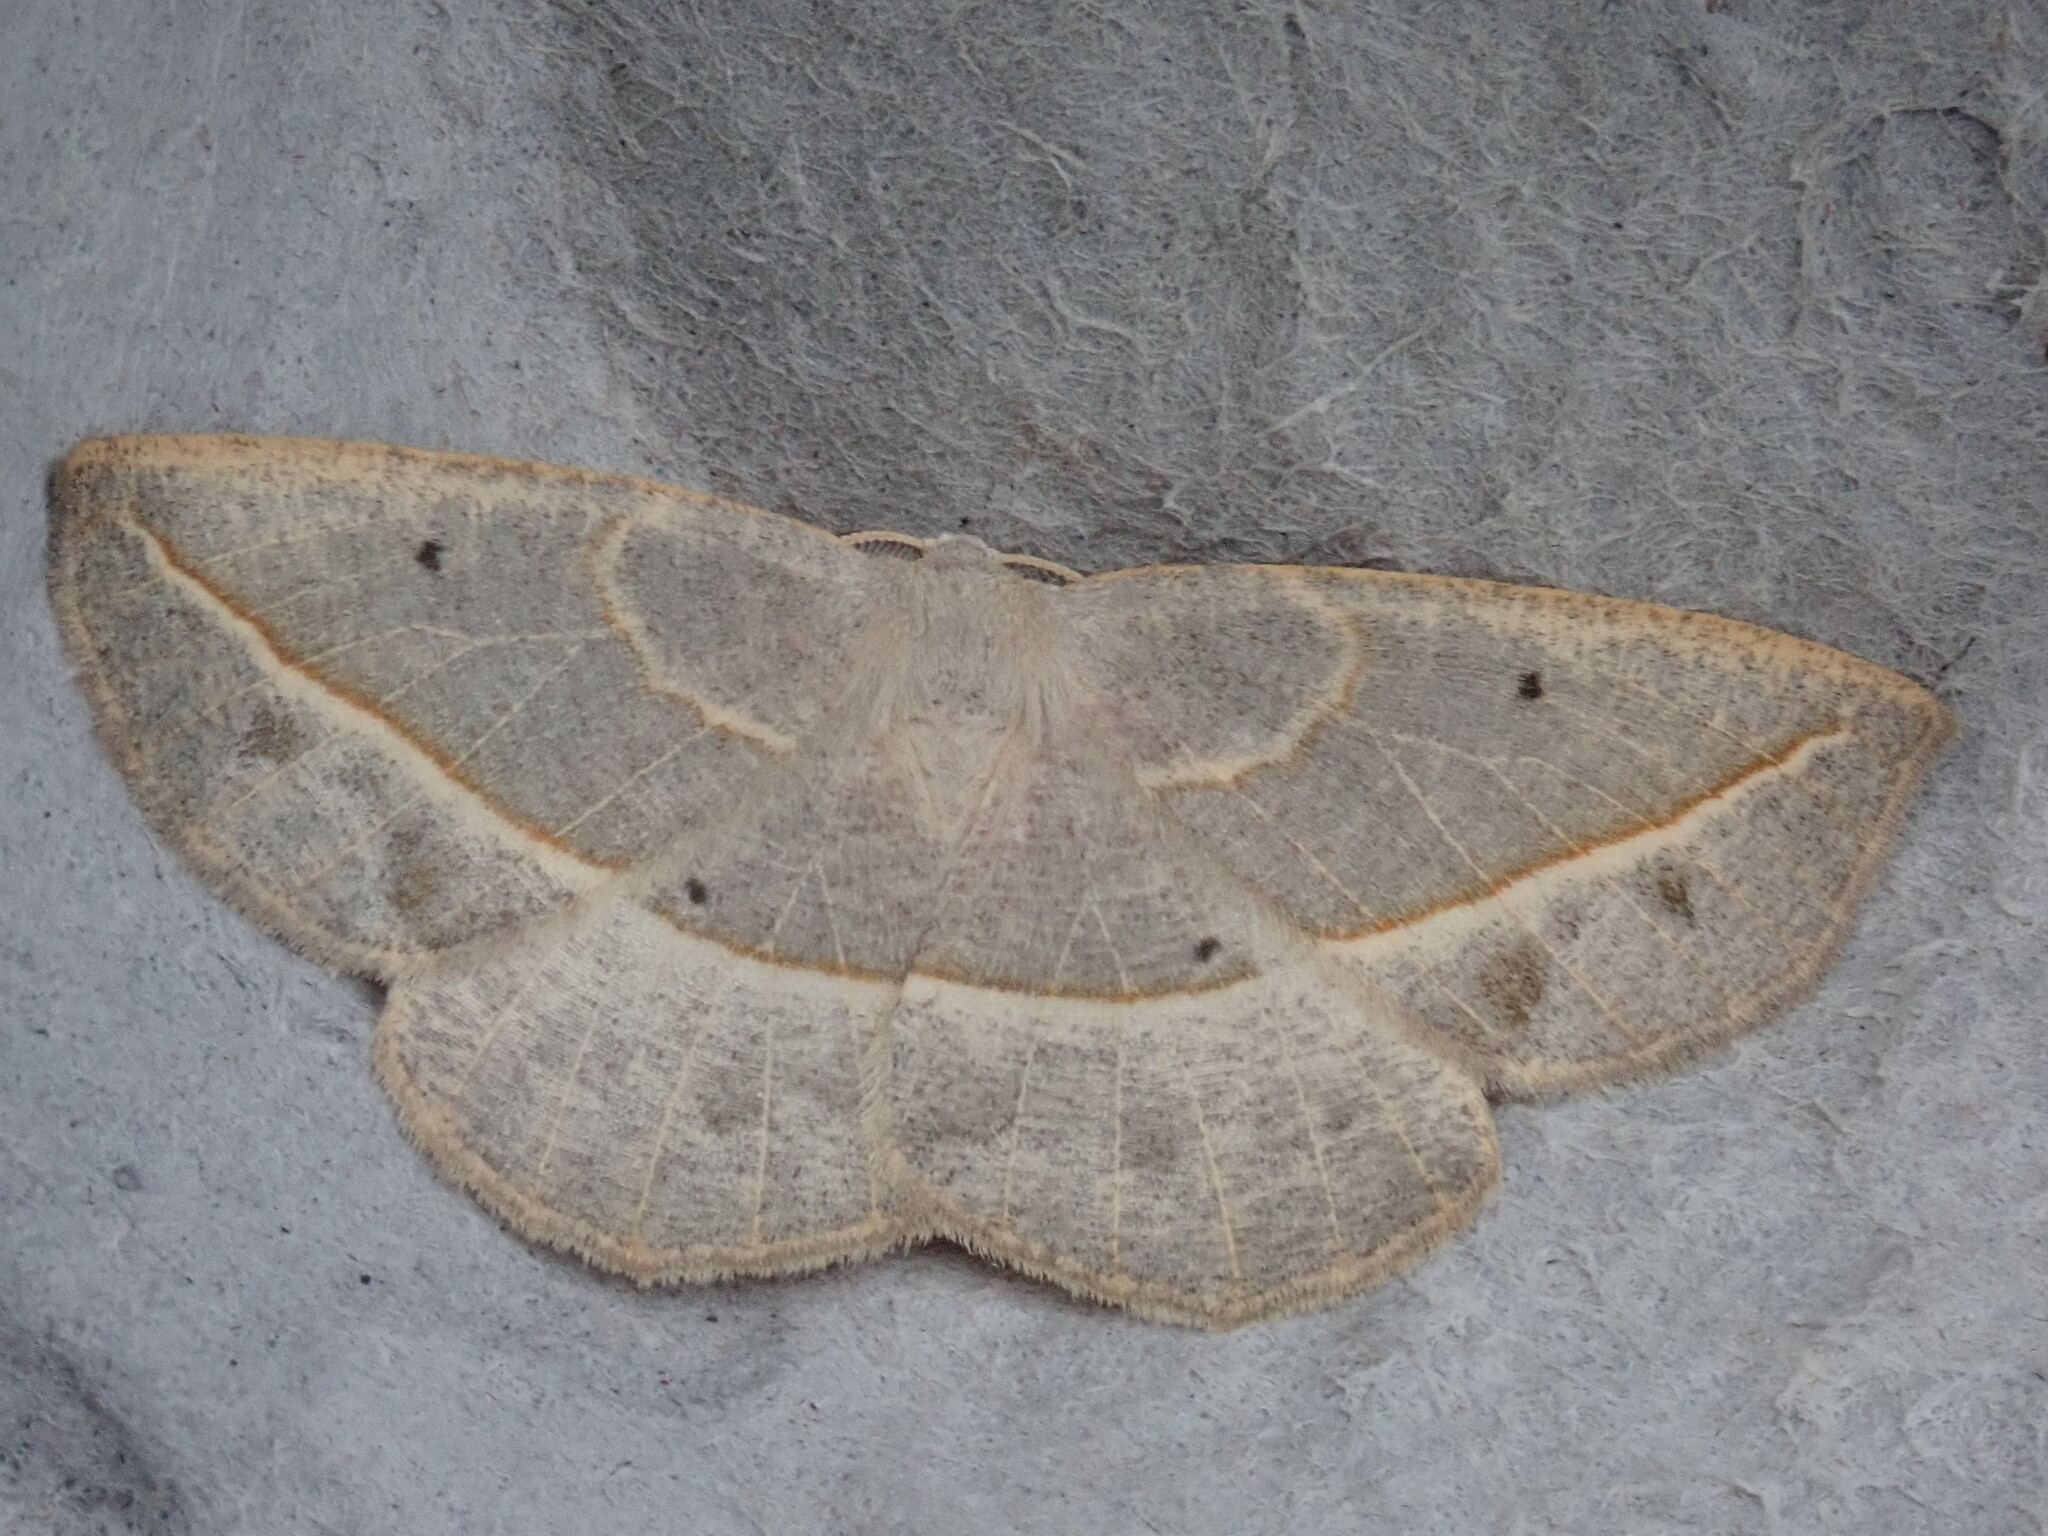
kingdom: Animalia
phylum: Arthropoda
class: Insecta
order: Lepidoptera
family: Geometridae
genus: Eusarca
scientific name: Eusarca confusaria
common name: Confused eusarca
